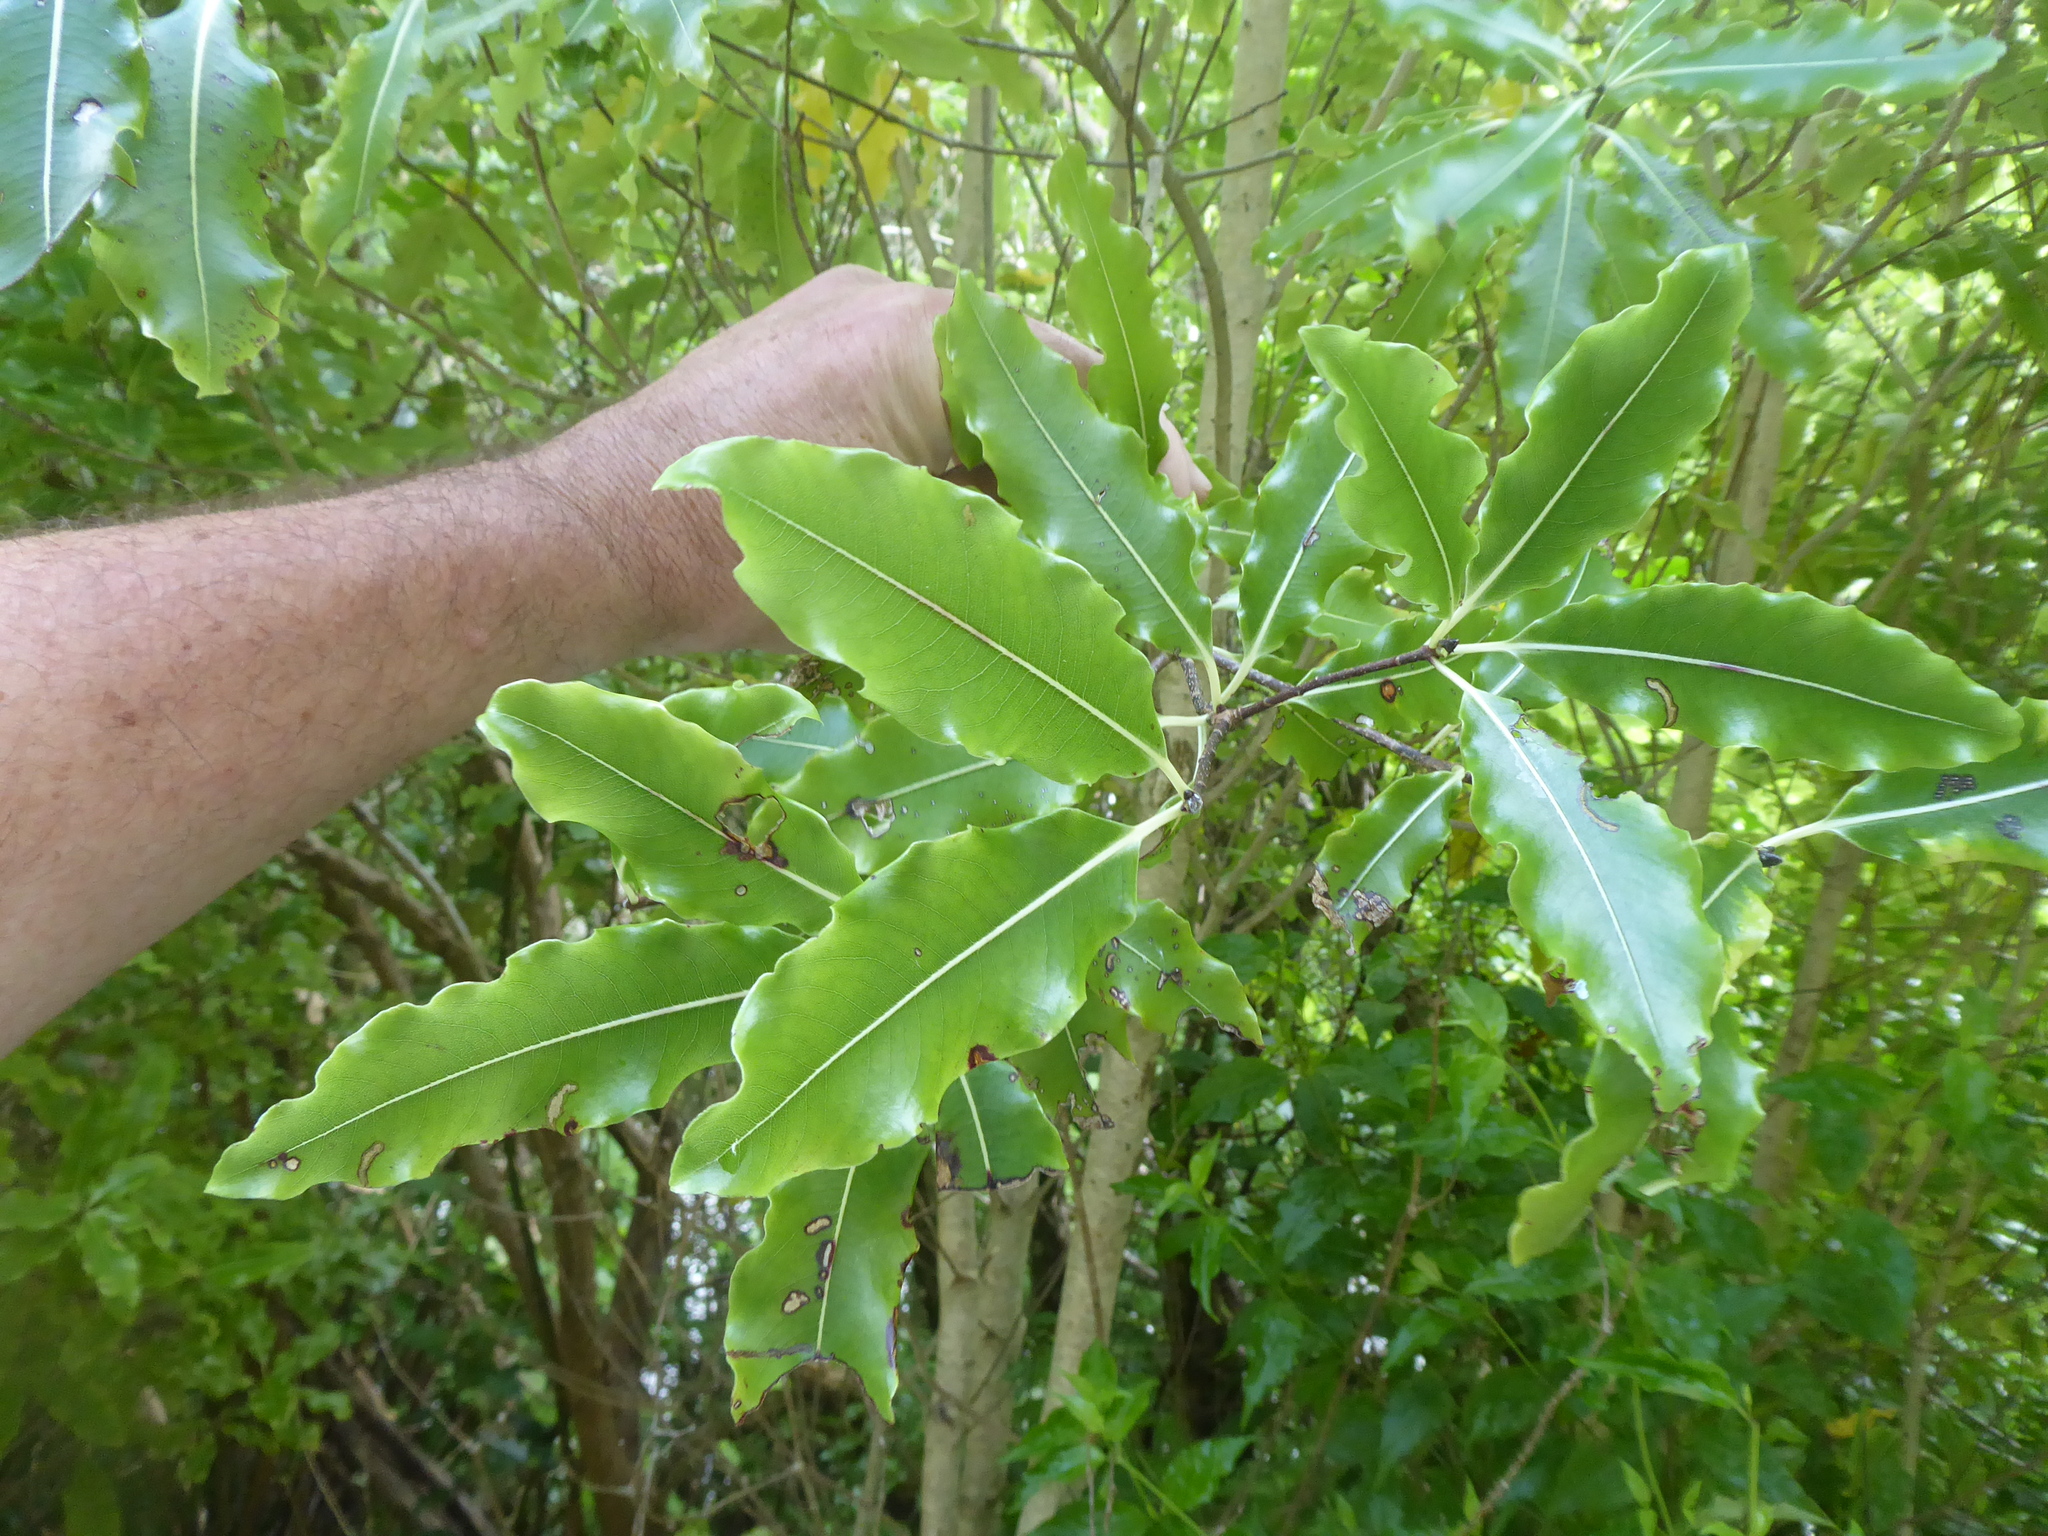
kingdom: Plantae
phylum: Tracheophyta
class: Magnoliopsida
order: Apiales
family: Pittosporaceae
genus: Pittosporum
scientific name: Pittosporum eugenioides
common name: Lemonwood
